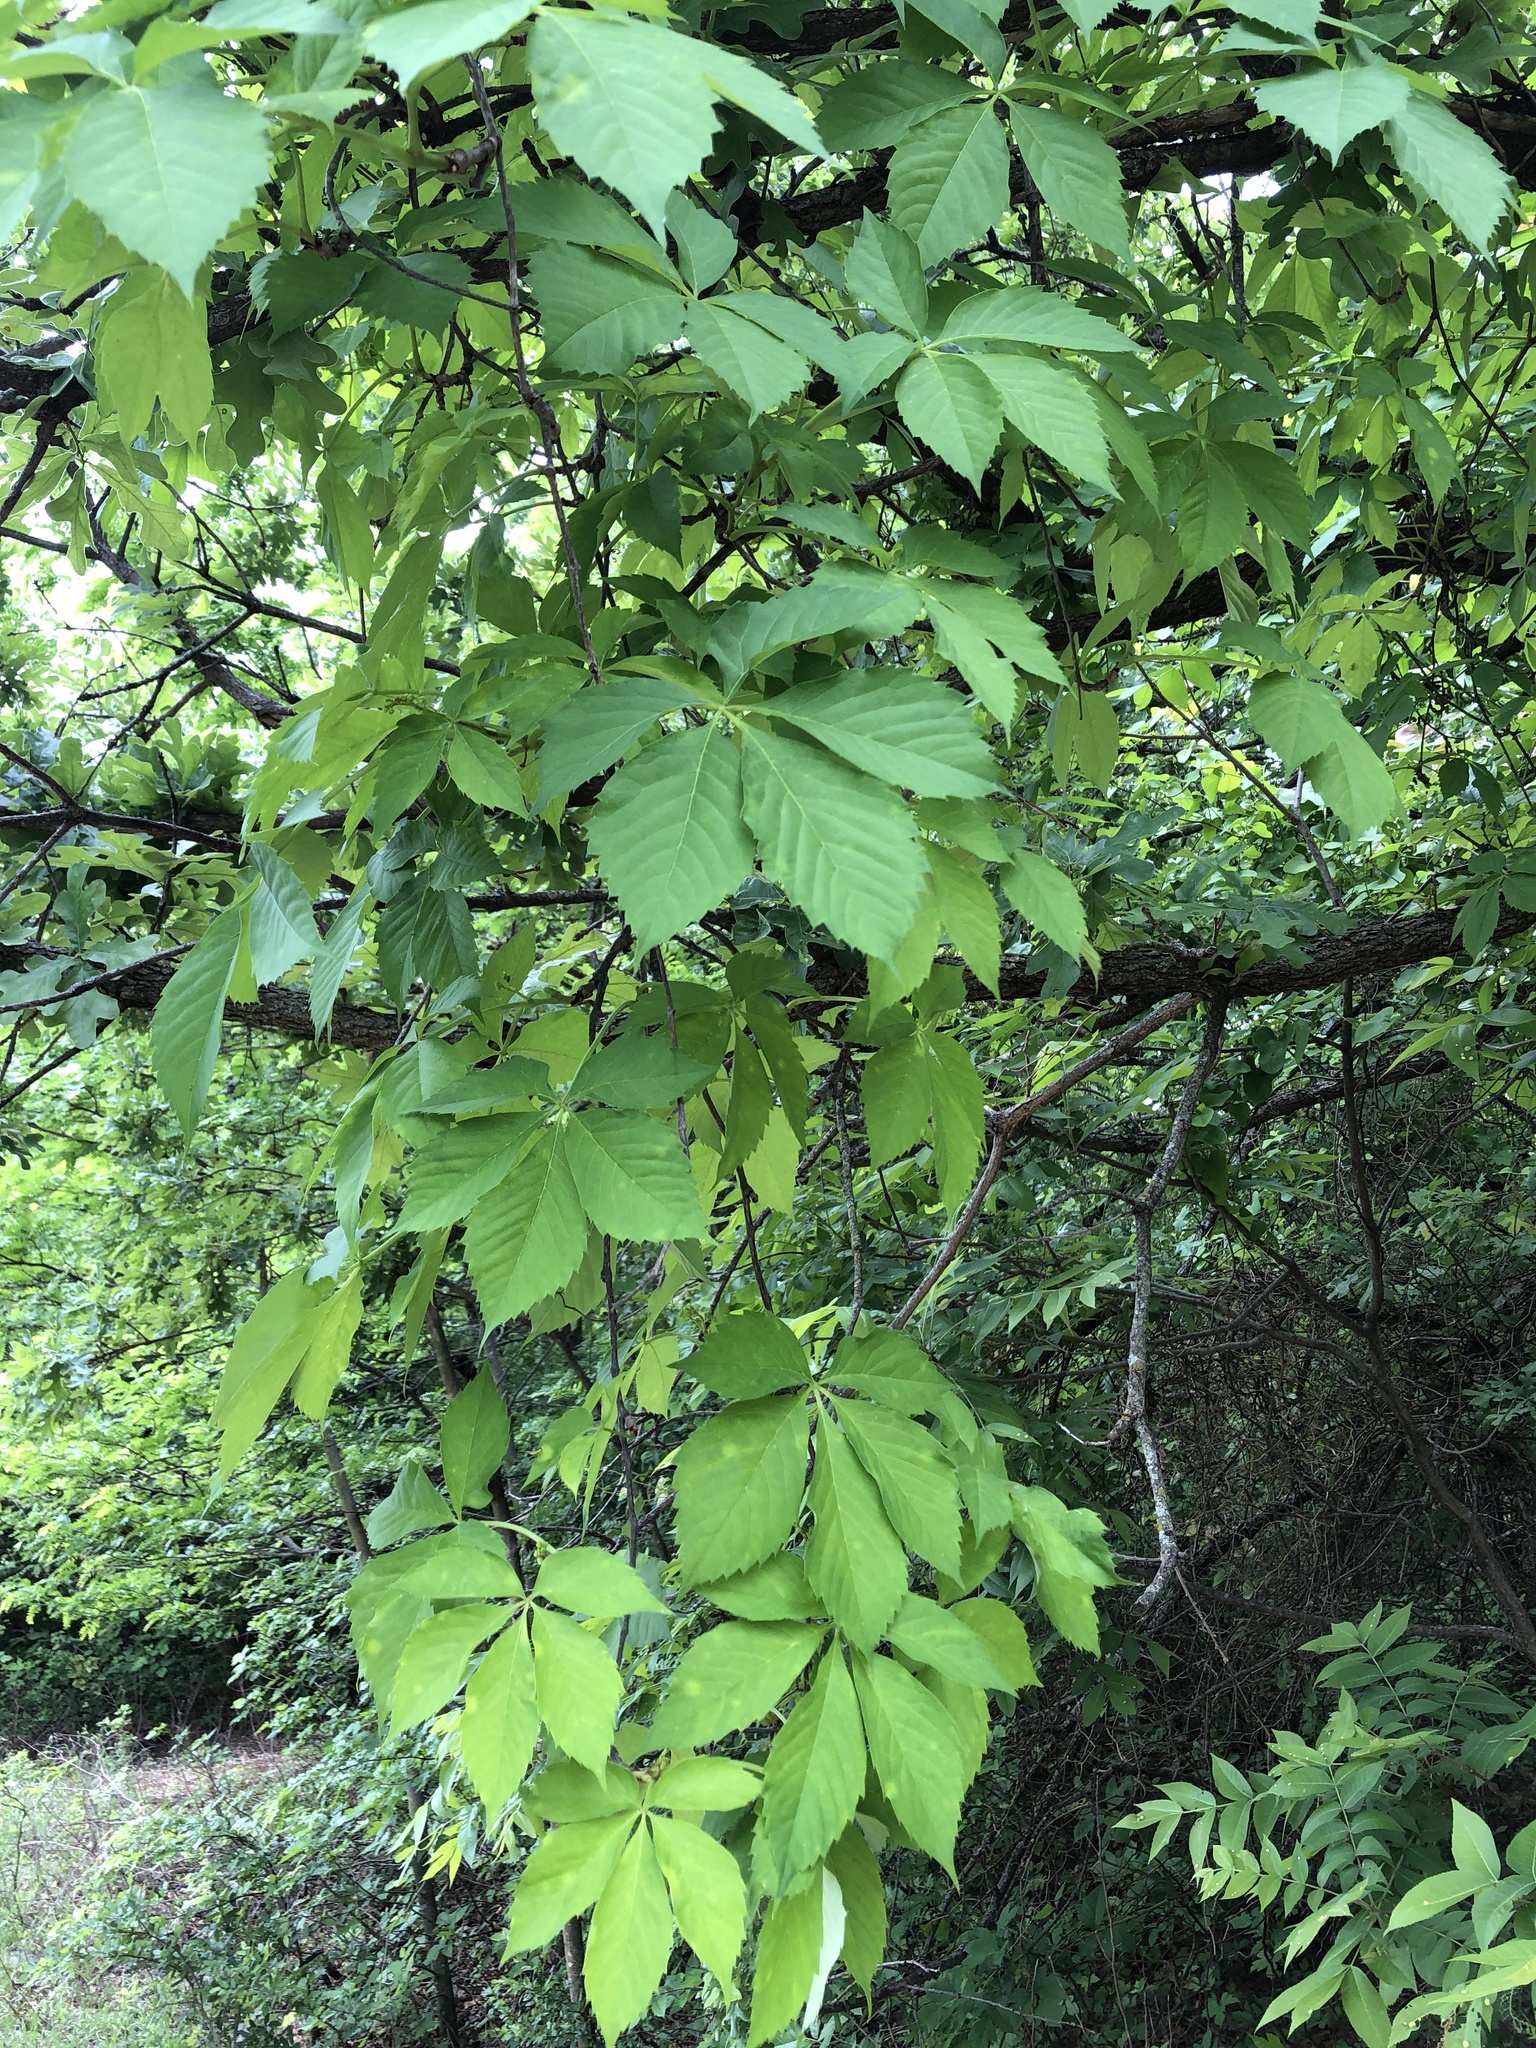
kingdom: Plantae
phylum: Tracheophyta
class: Magnoliopsida
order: Vitales
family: Vitaceae
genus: Parthenocissus
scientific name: Parthenocissus quinquefolia
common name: Virginia-creeper
